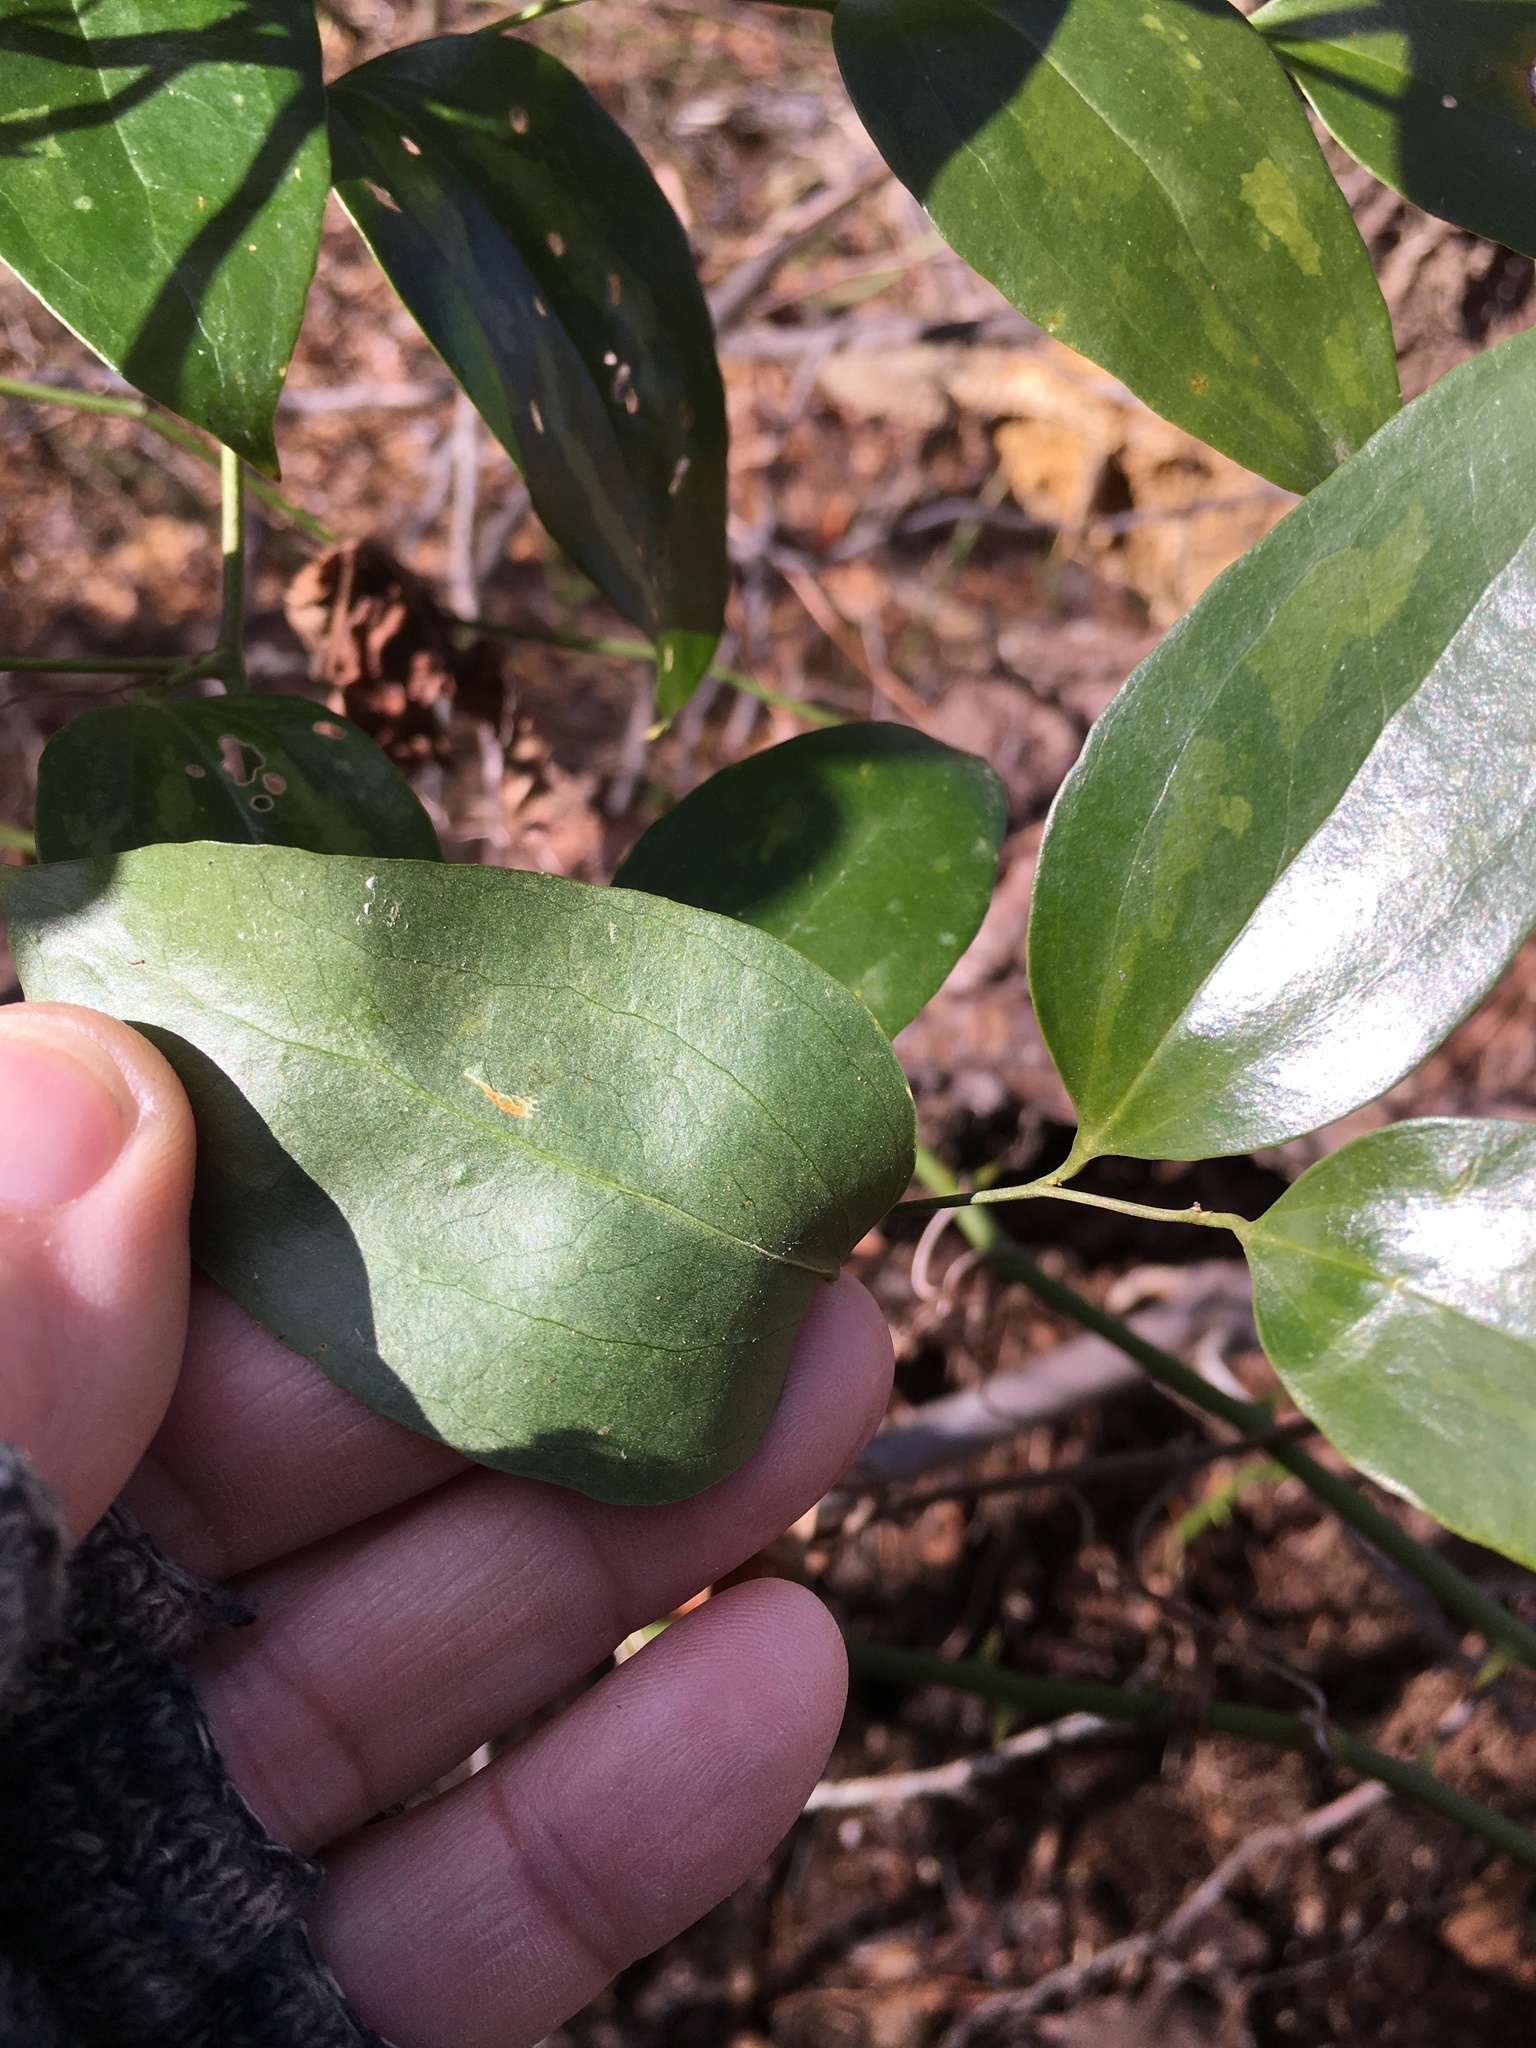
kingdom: Plantae
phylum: Tracheophyta
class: Liliopsida
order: Liliales
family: Smilacaceae
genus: Smilax
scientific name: Smilax maritima
